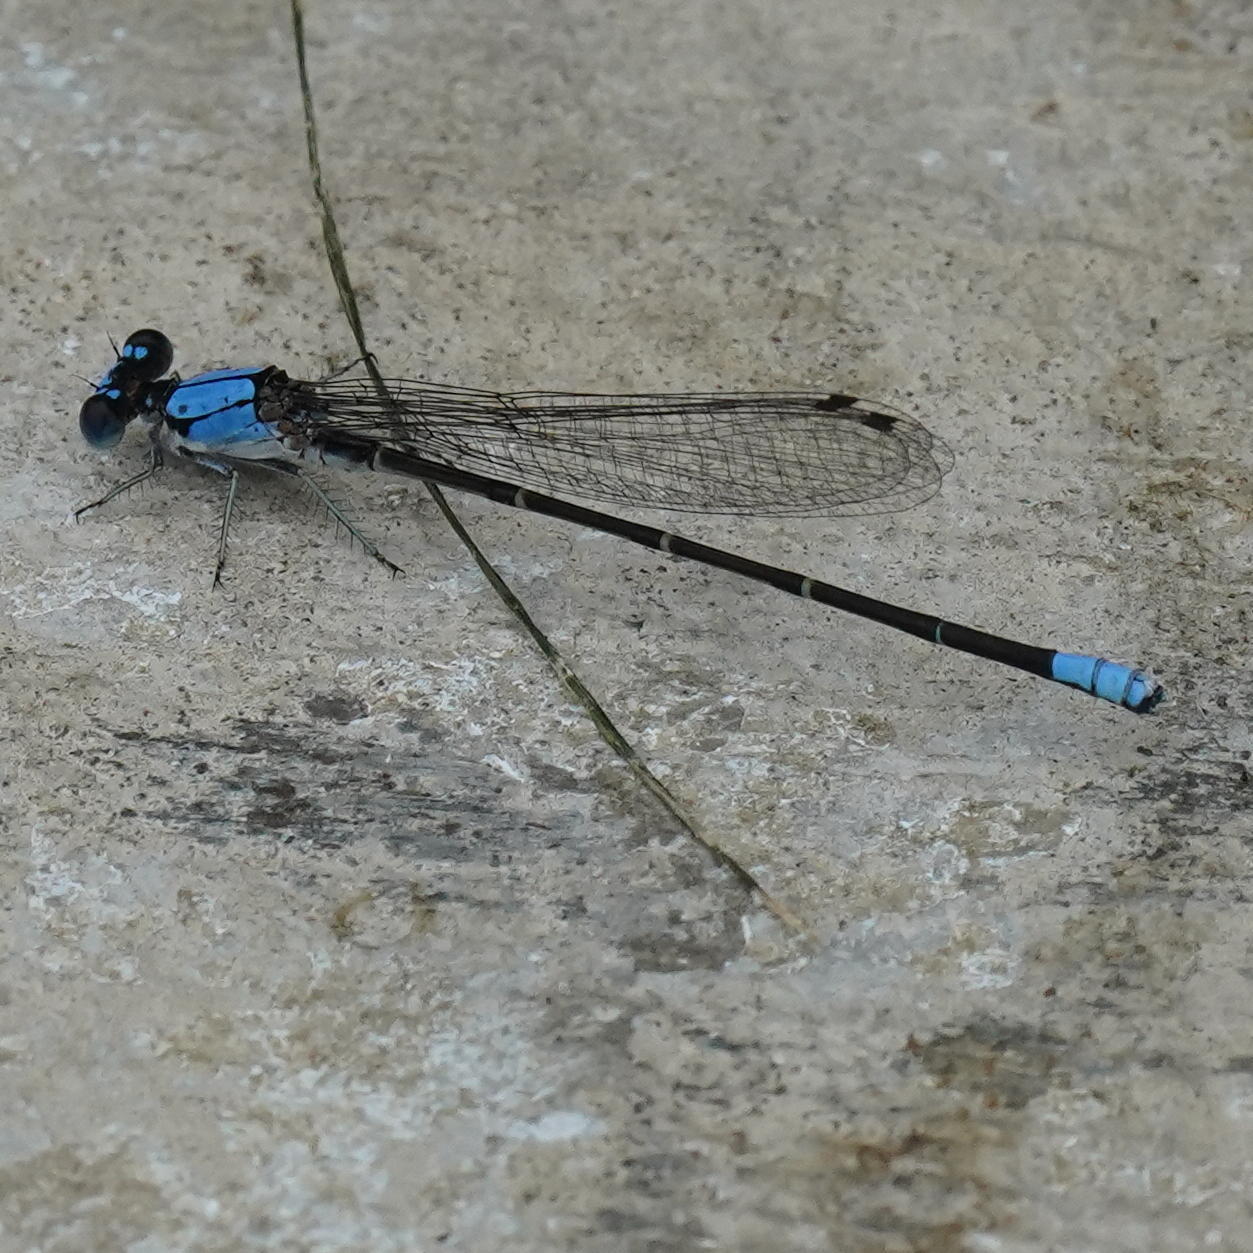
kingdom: Animalia
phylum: Arthropoda
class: Insecta
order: Odonata
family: Coenagrionidae
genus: Argia
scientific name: Argia apicalis
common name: Blue-fronted dancer
